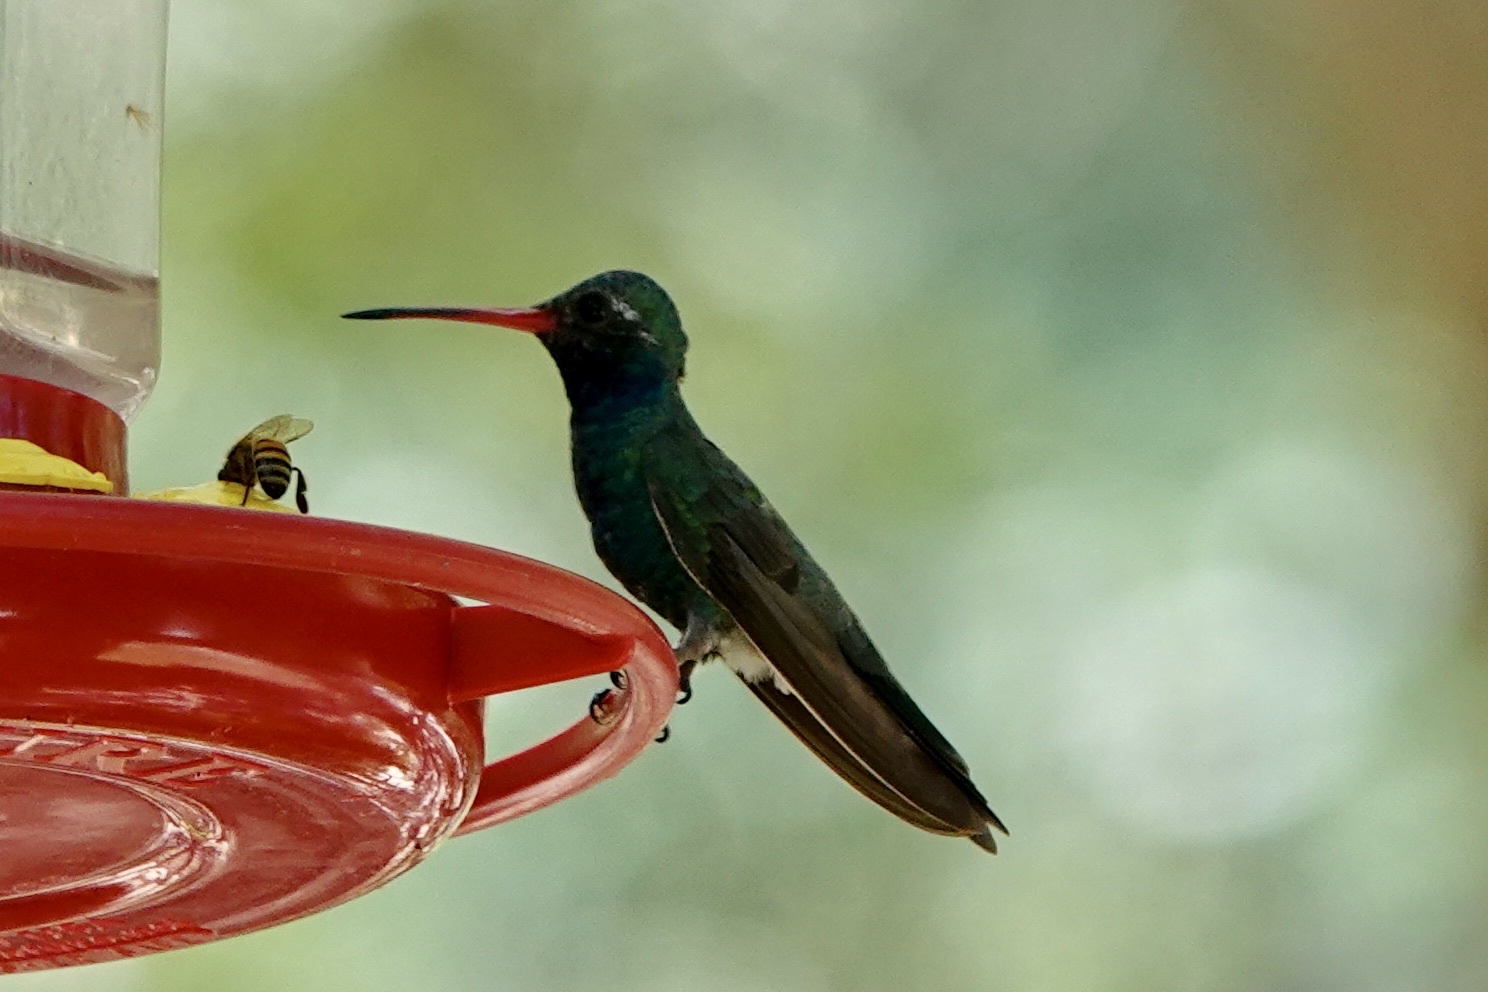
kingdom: Animalia
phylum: Chordata
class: Aves
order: Apodiformes
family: Trochilidae
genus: Cynanthus
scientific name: Cynanthus latirostris
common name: Broad-billed hummingbird
